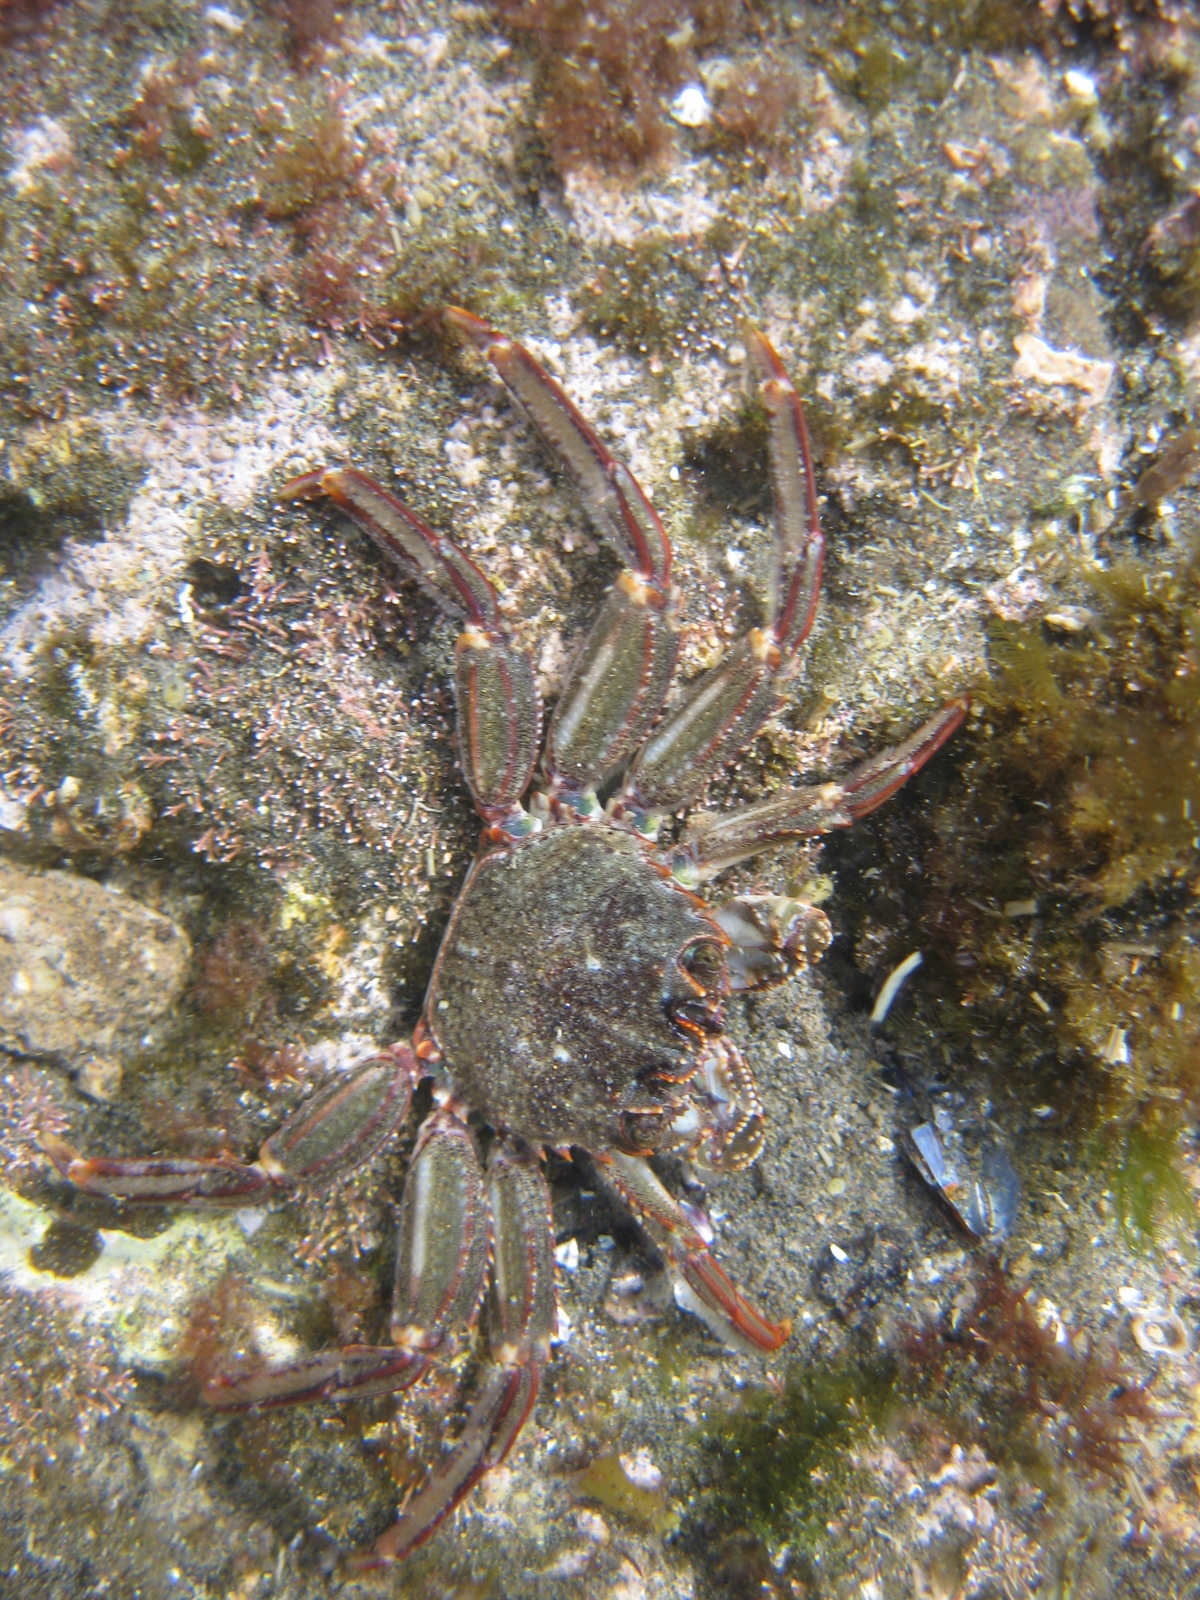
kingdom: Animalia
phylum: Arthropoda
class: Malacostraca
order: Decapoda
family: Plagusiidae
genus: Guinusia
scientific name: Guinusia chabrus
